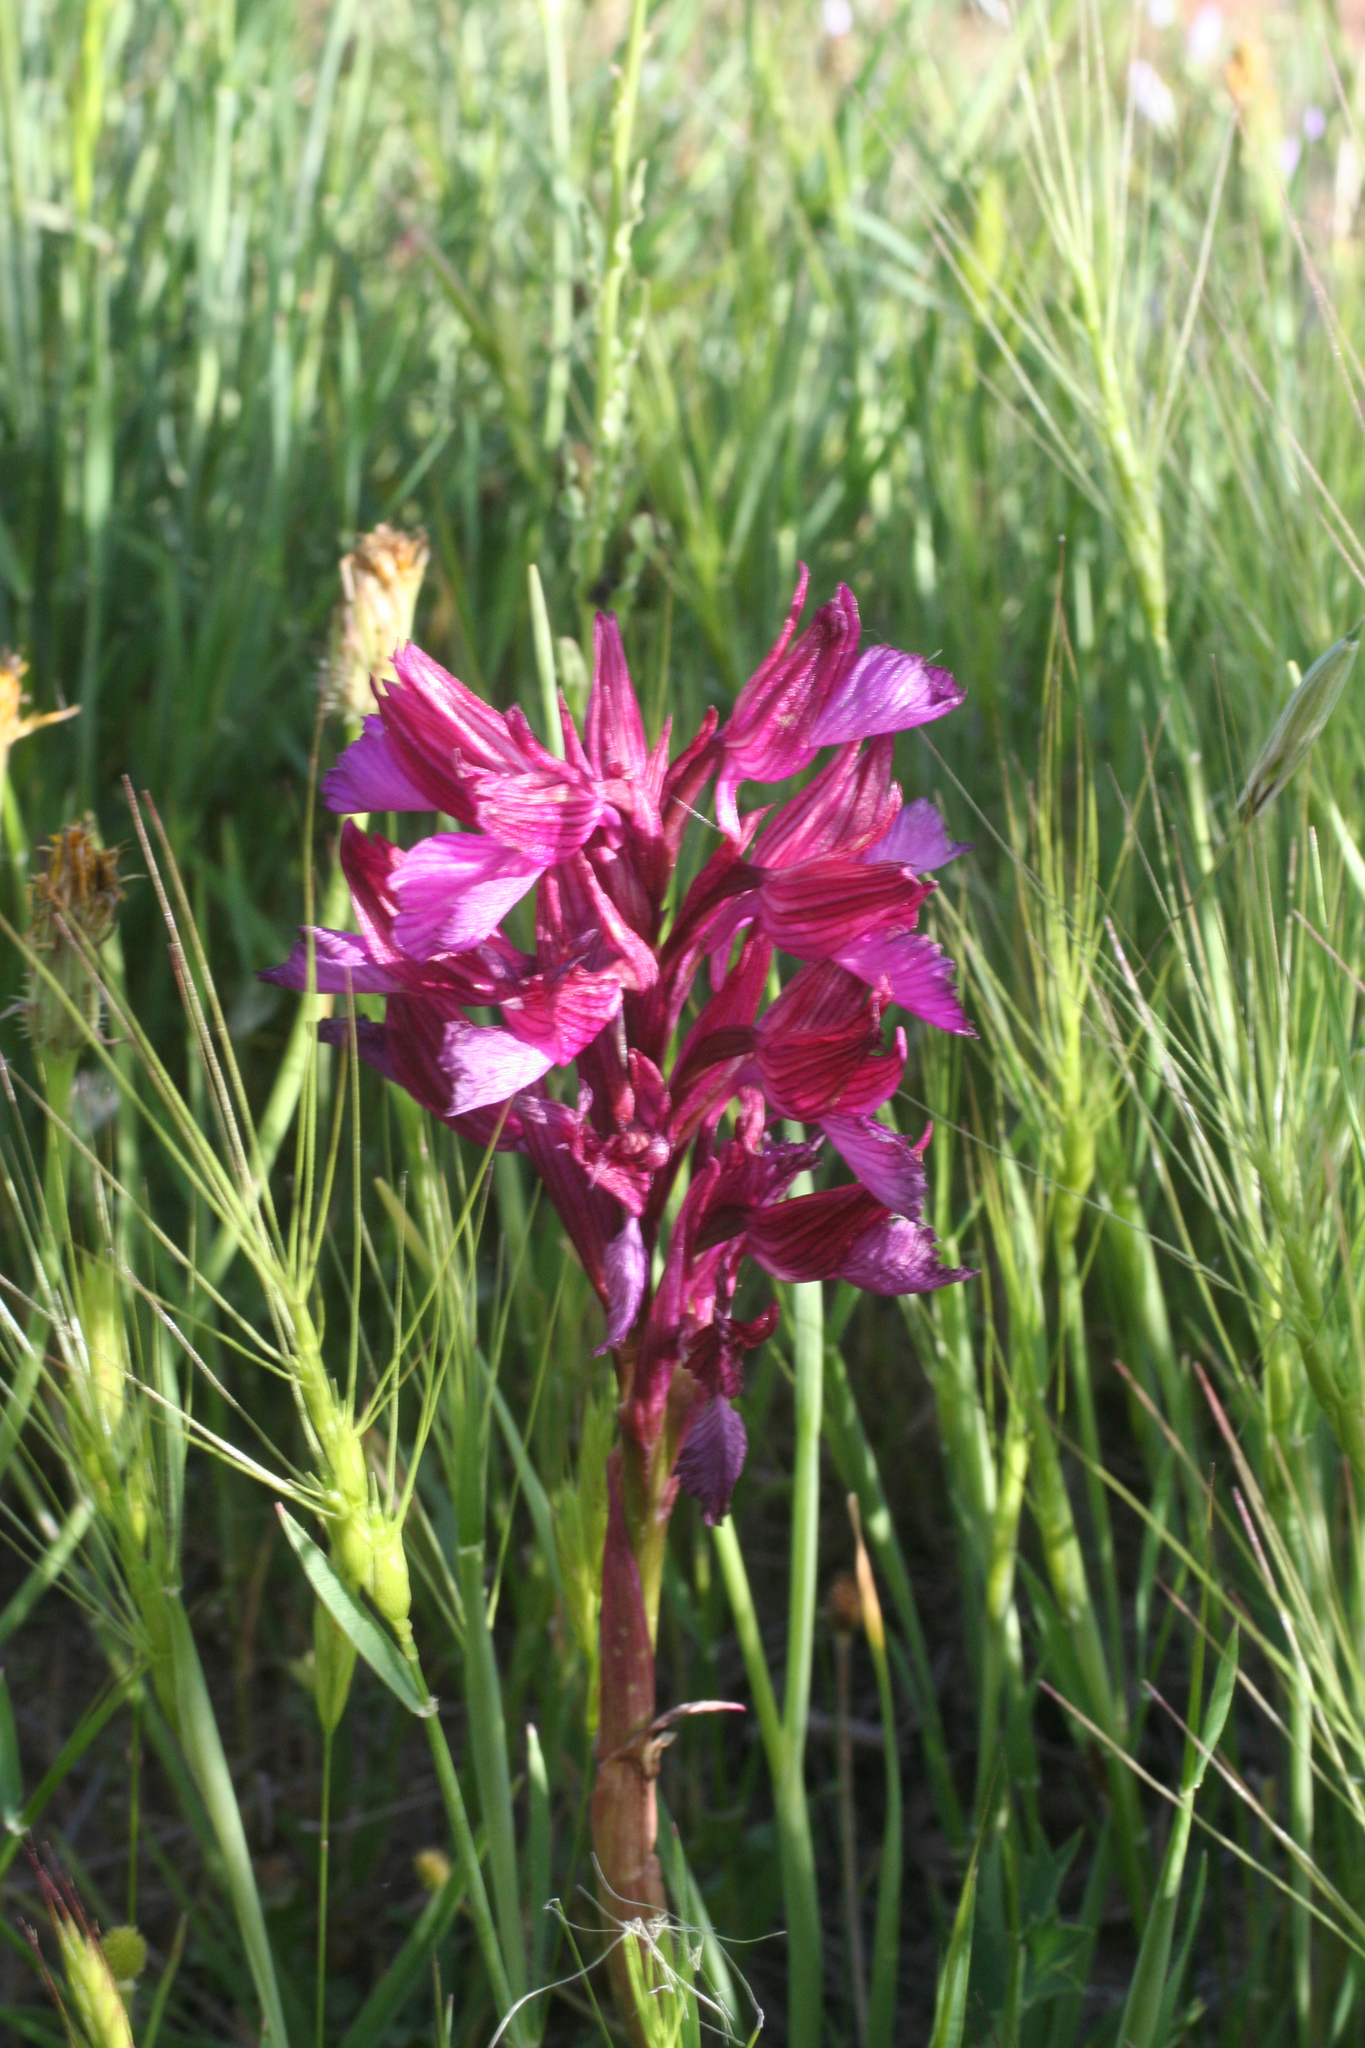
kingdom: Plantae
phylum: Tracheophyta
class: Liliopsida
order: Asparagales
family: Orchidaceae
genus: Anacamptis
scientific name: Anacamptis papilionacea
